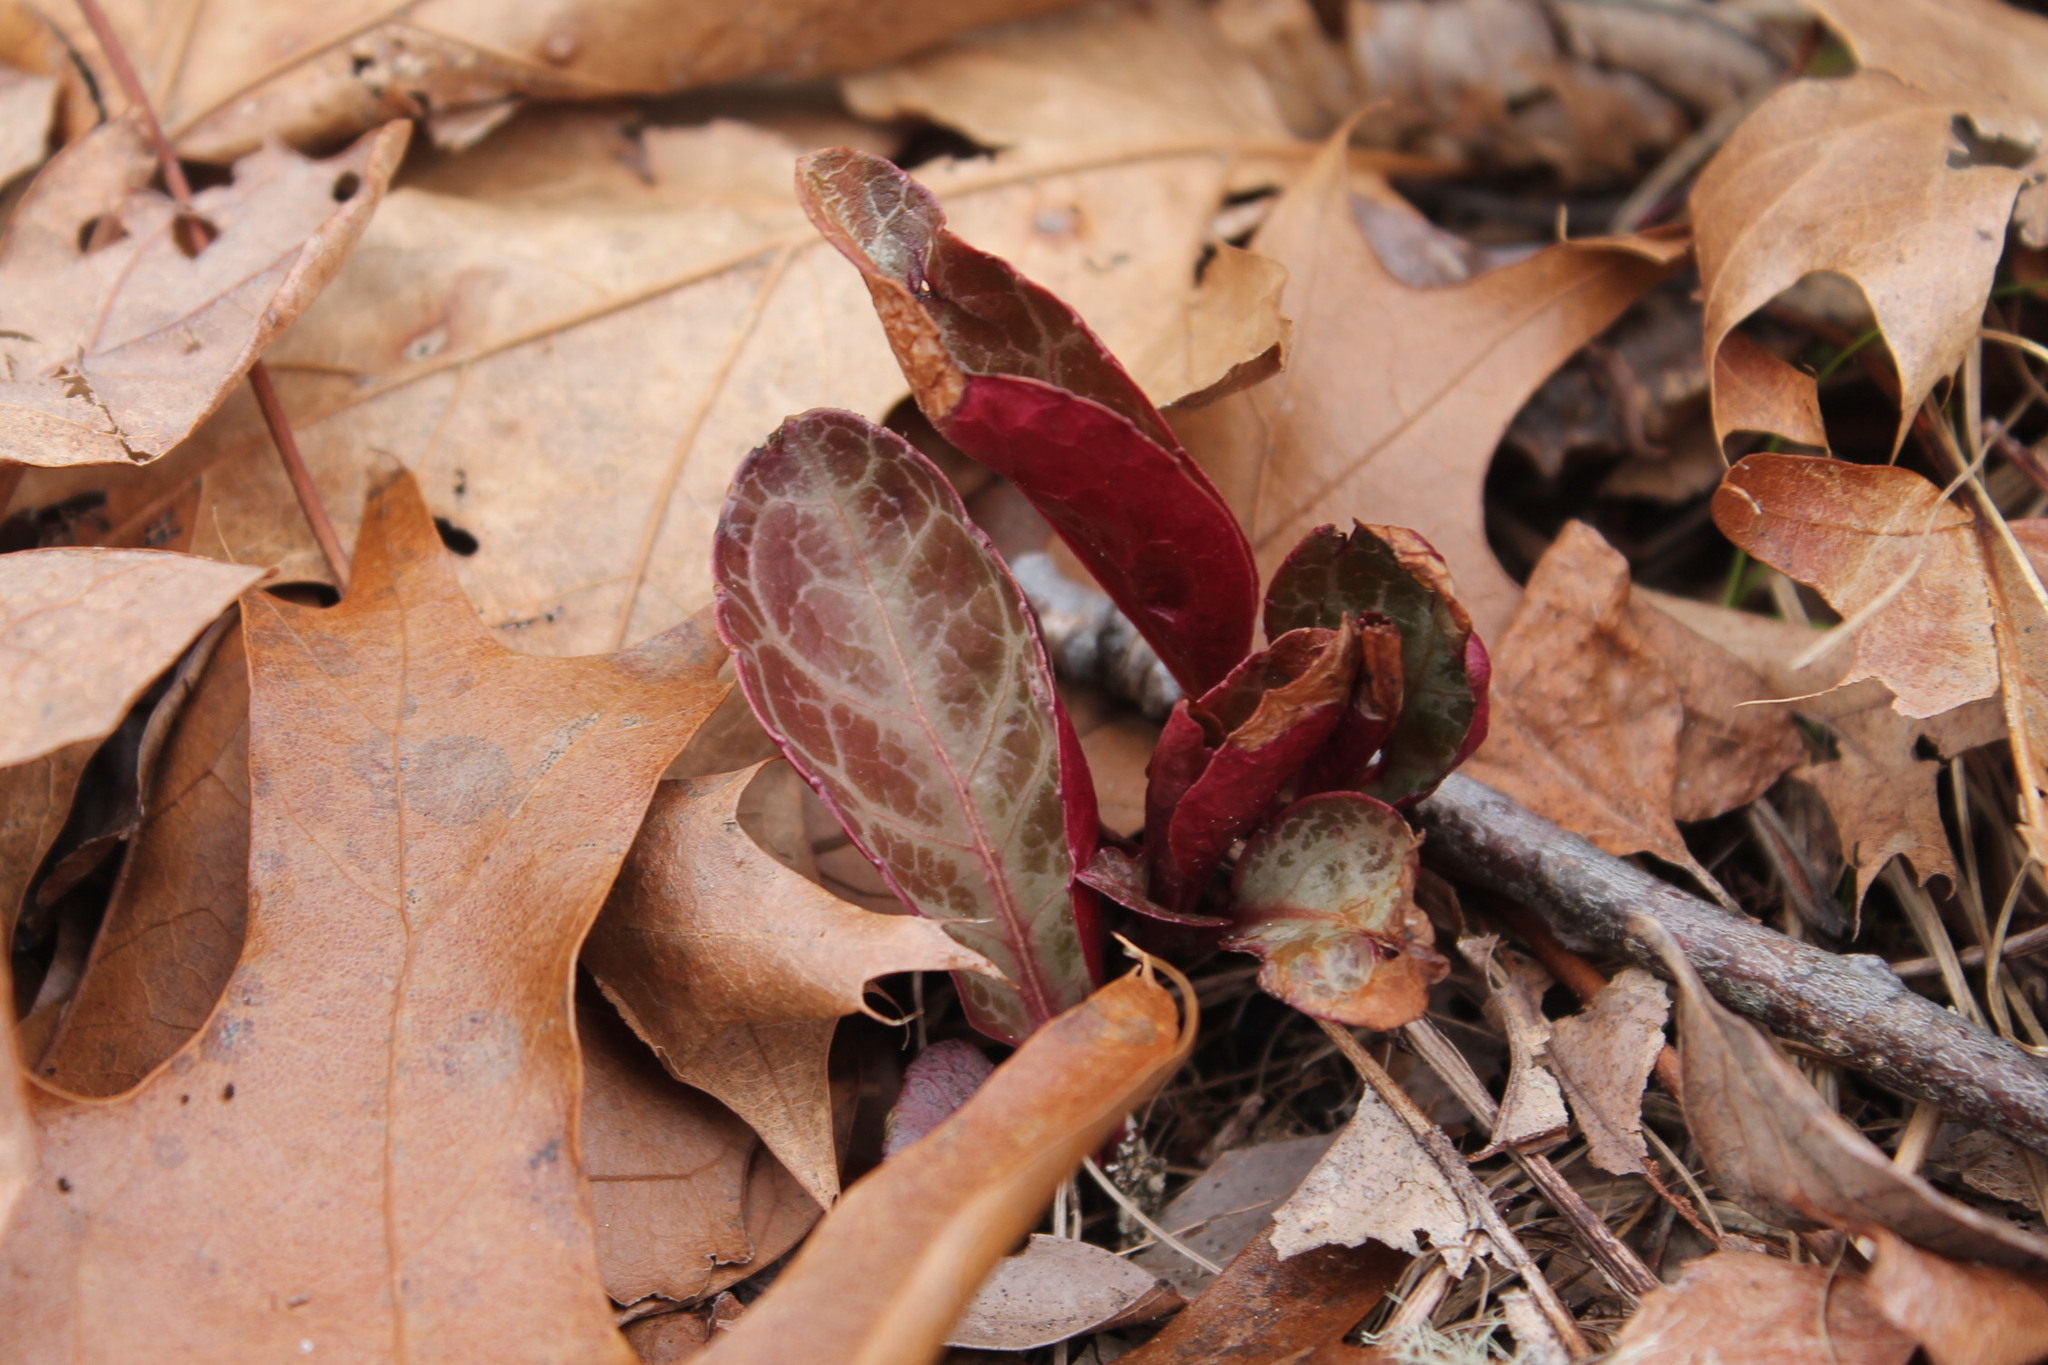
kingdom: Plantae
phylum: Tracheophyta
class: Magnoliopsida
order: Ericales
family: Ericaceae
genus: Pyrola
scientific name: Pyrola americana
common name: American wintergreen
